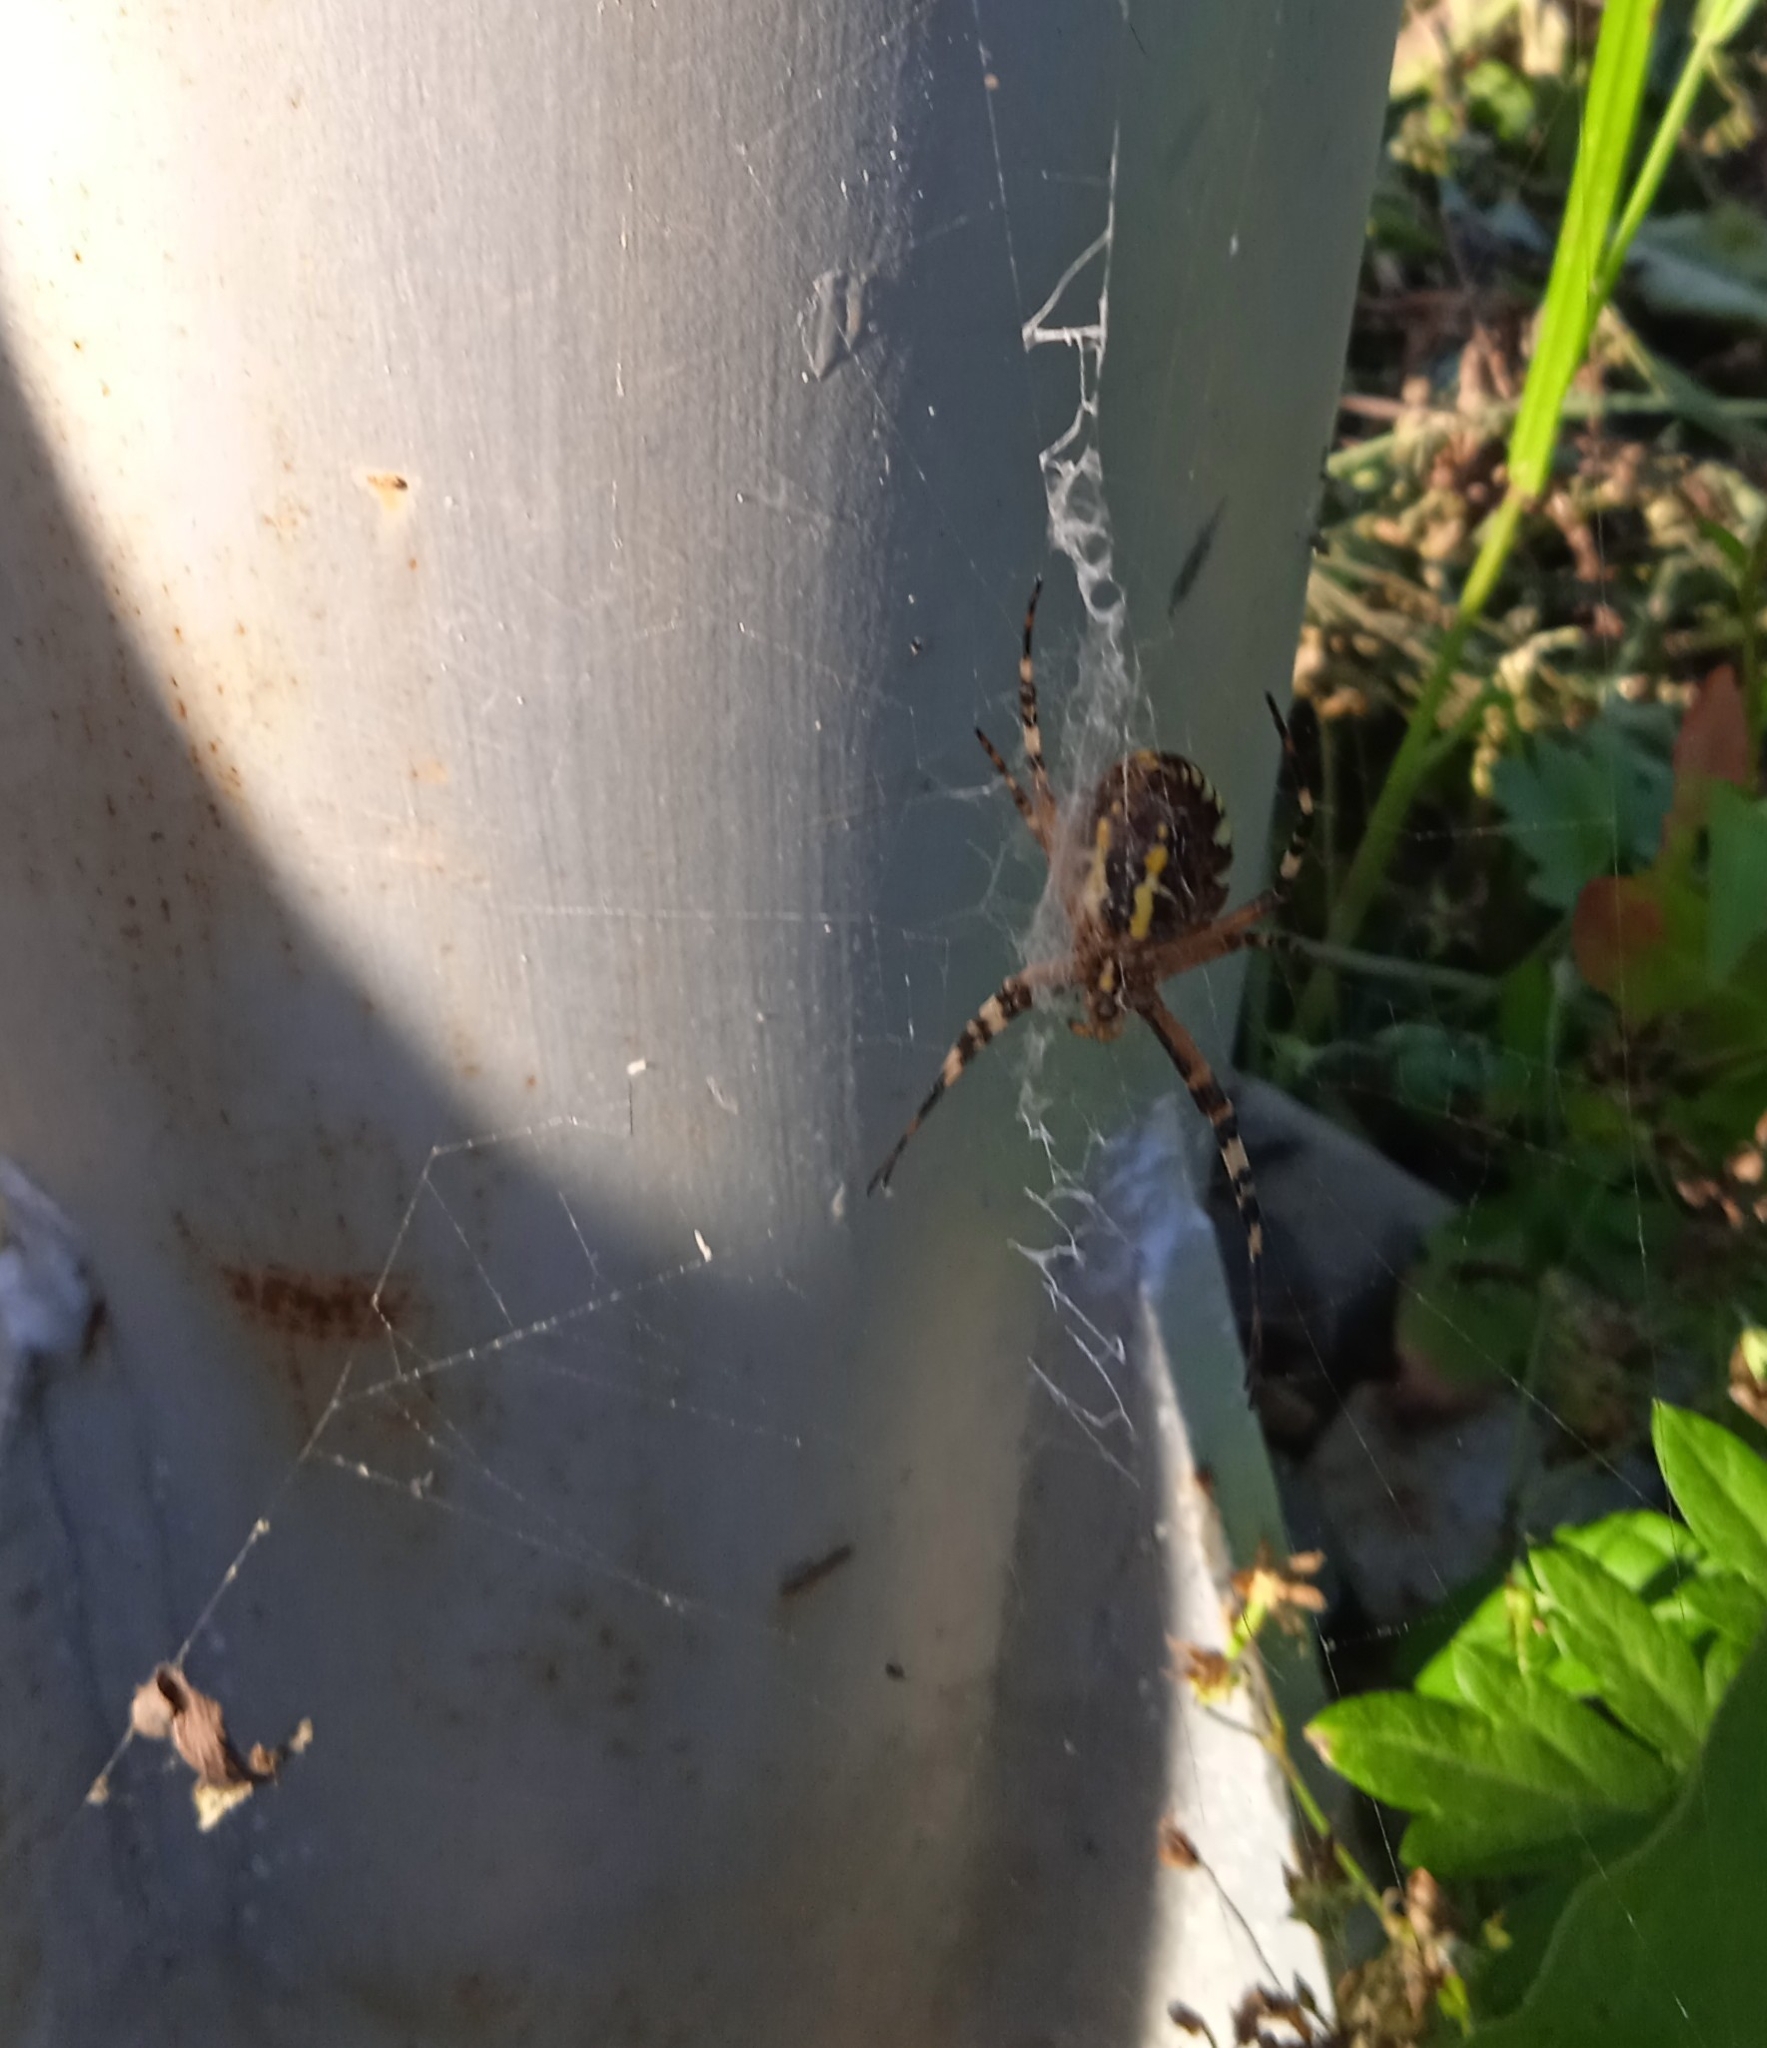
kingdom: Animalia
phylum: Arthropoda
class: Arachnida
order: Araneae
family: Araneidae
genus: Argiope
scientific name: Argiope bruennichi
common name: Wasp spider
